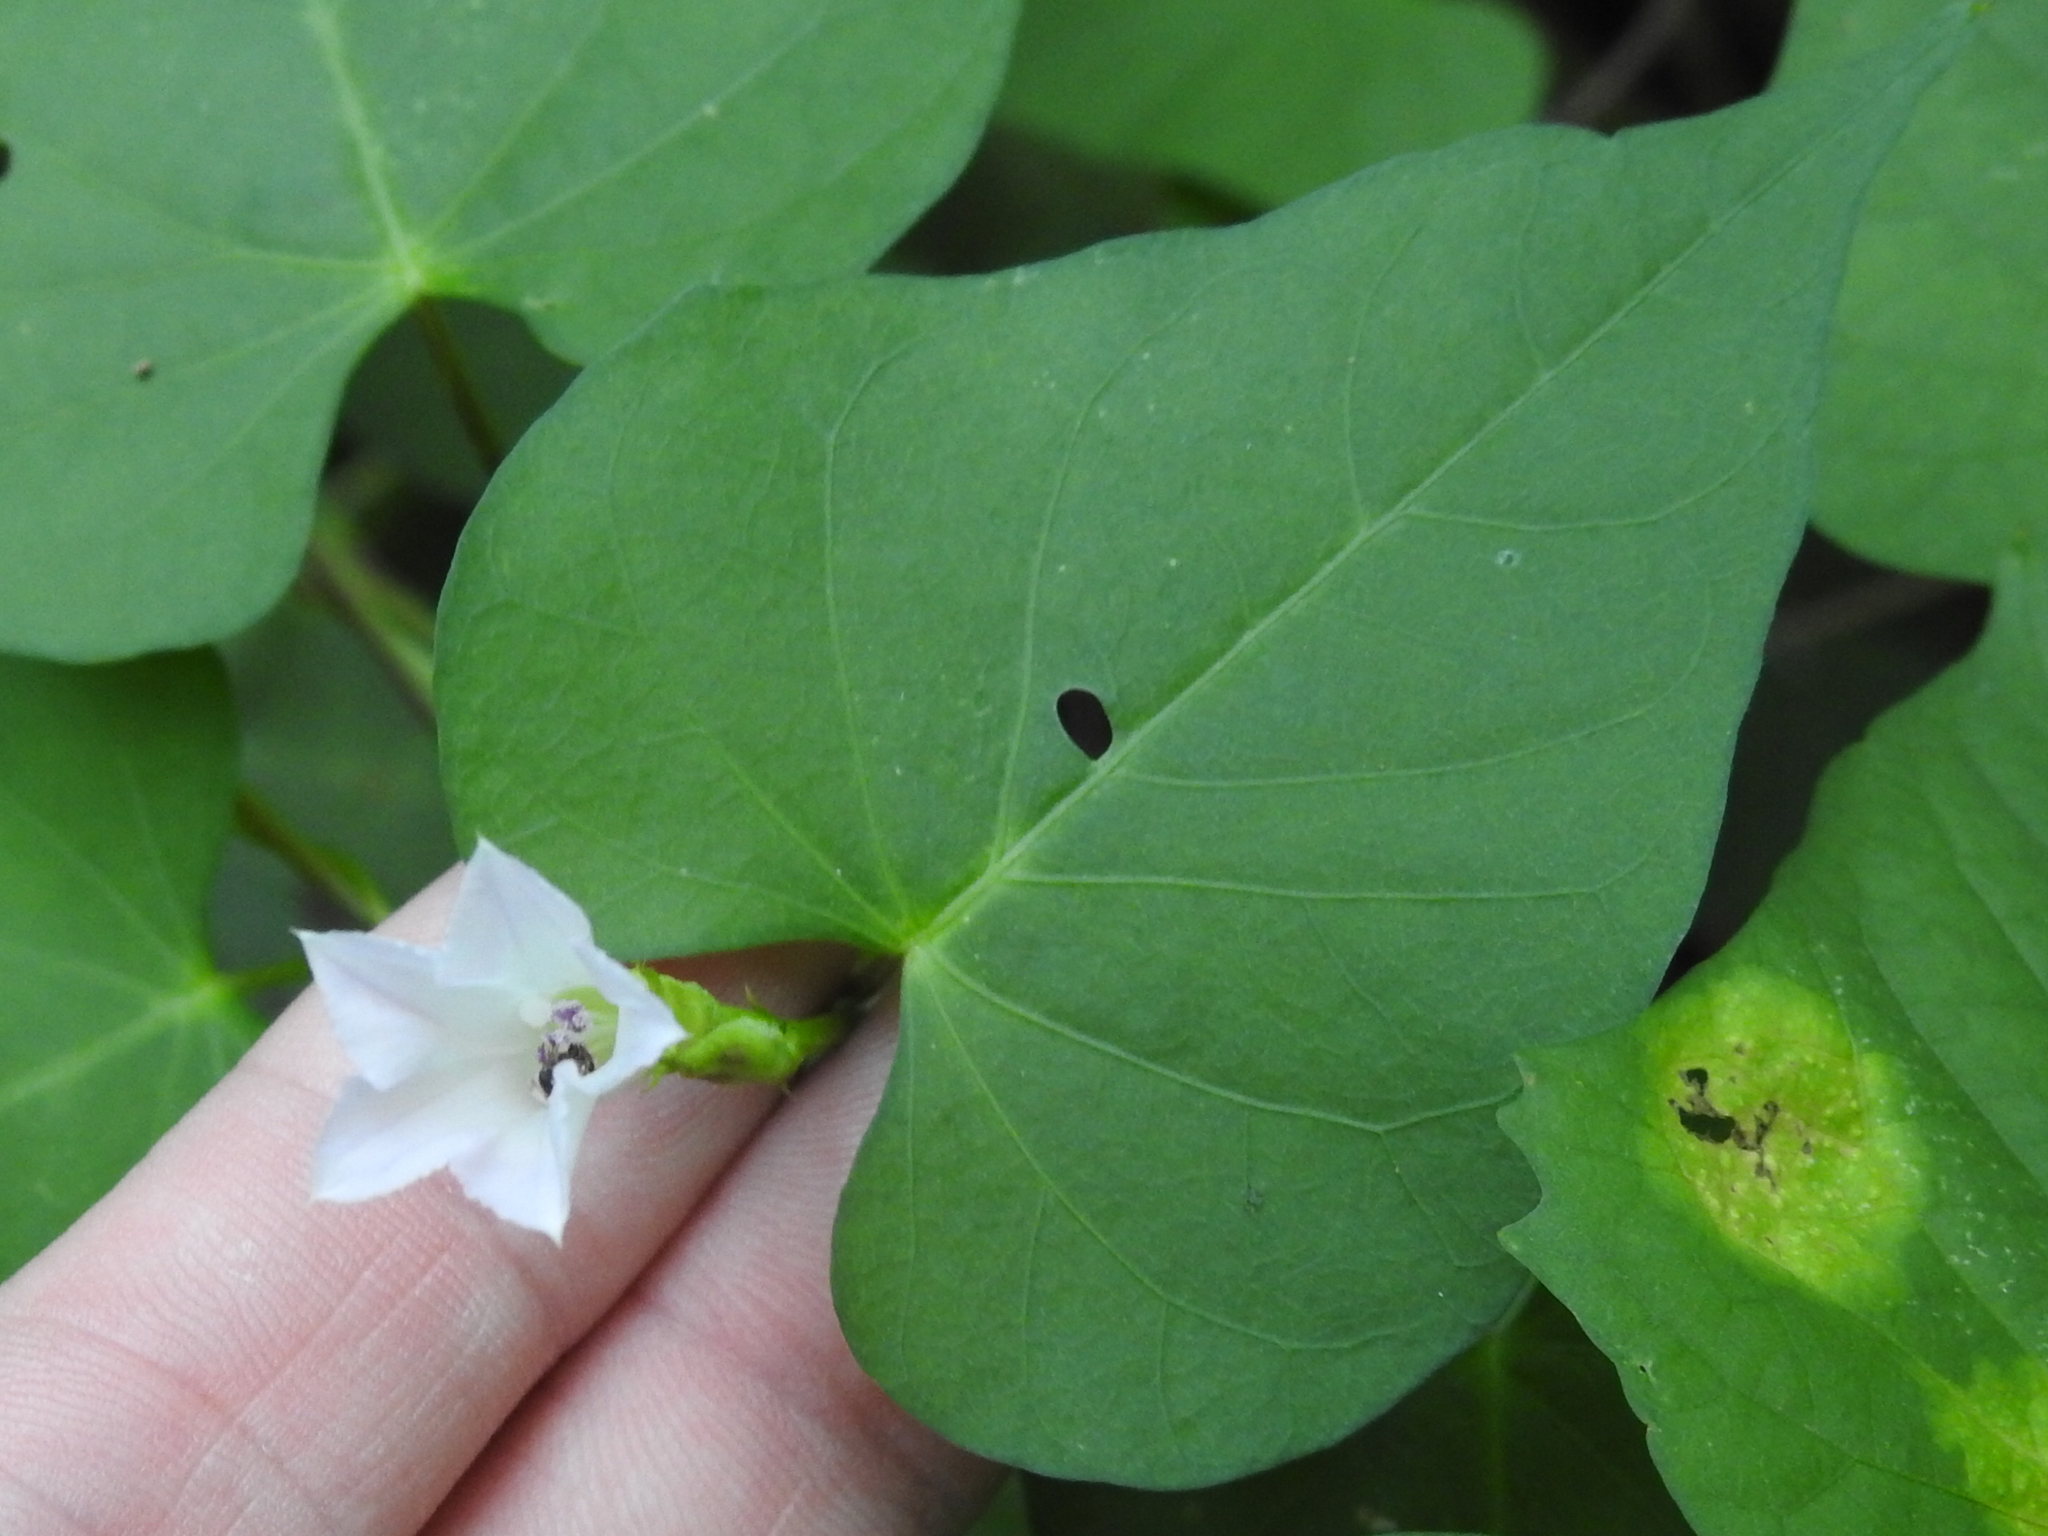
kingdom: Plantae
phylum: Tracheophyta
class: Magnoliopsida
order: Solanales
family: Convolvulaceae
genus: Ipomoea
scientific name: Ipomoea lacunosa
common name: White morning-glory
